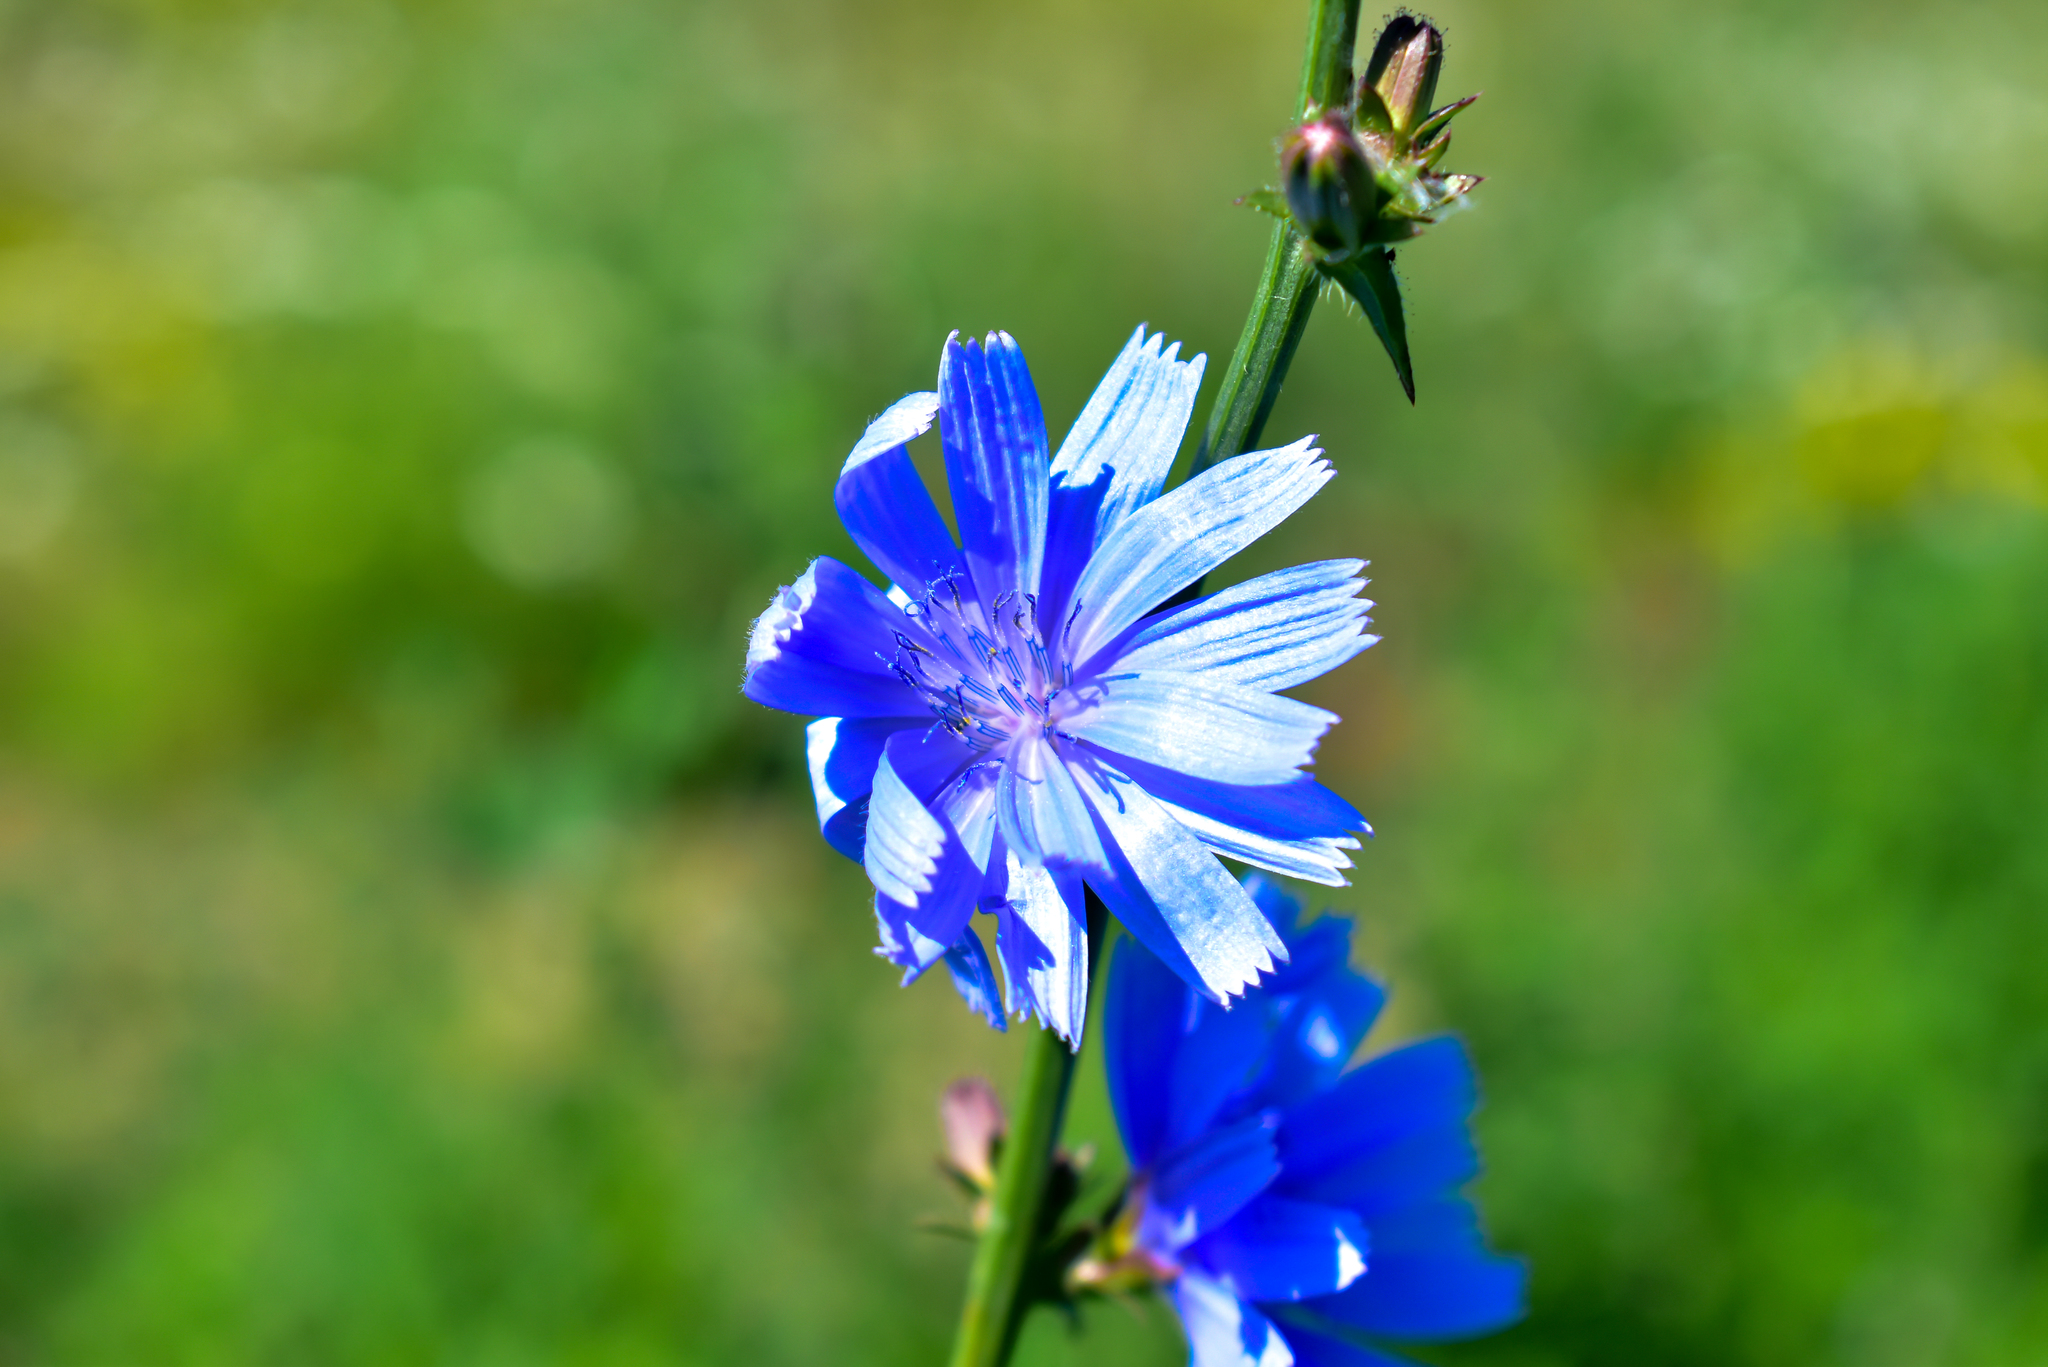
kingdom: Plantae
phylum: Tracheophyta
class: Magnoliopsida
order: Asterales
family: Asteraceae
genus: Cichorium
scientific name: Cichorium intybus
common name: Chicory
